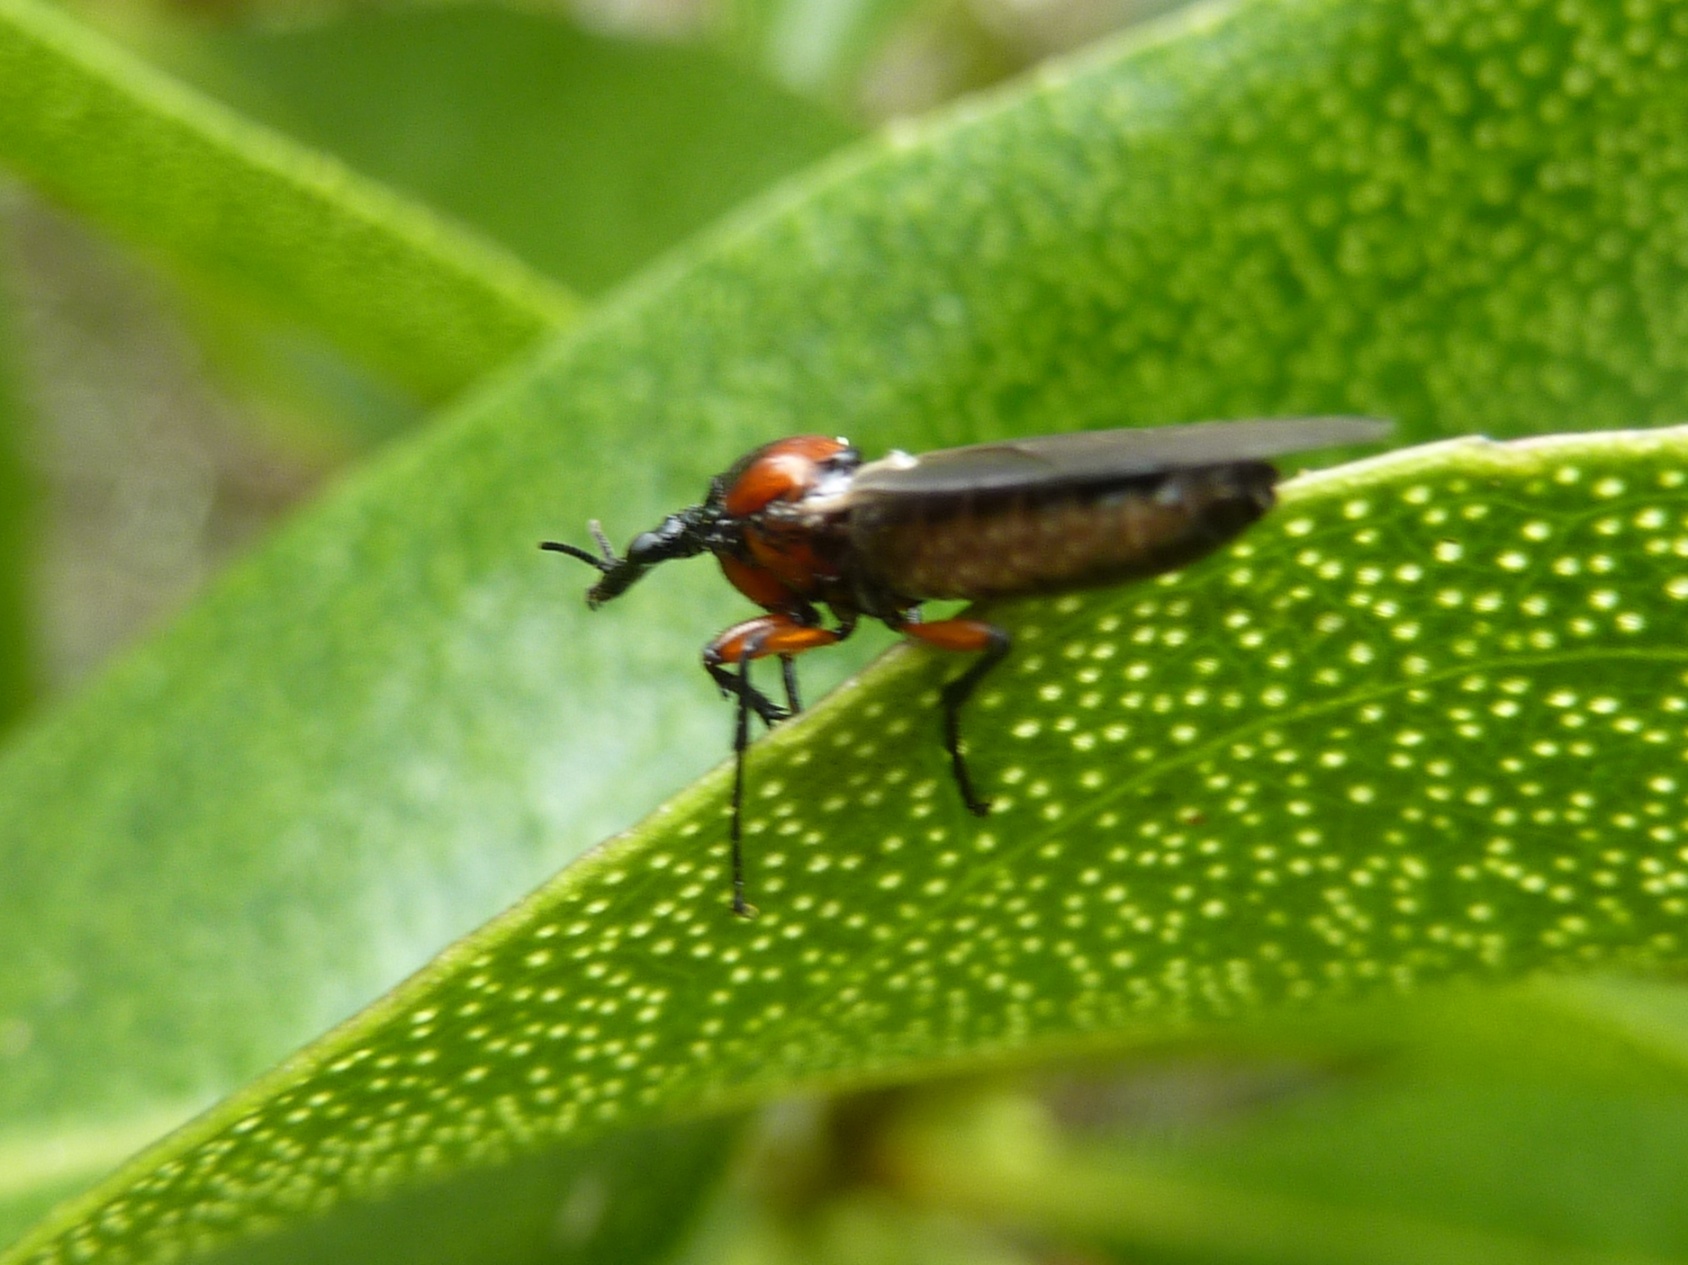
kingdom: Animalia
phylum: Arthropoda
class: Insecta
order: Diptera
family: Bibionidae
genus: Dilophus
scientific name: Dilophus nigrostigma
